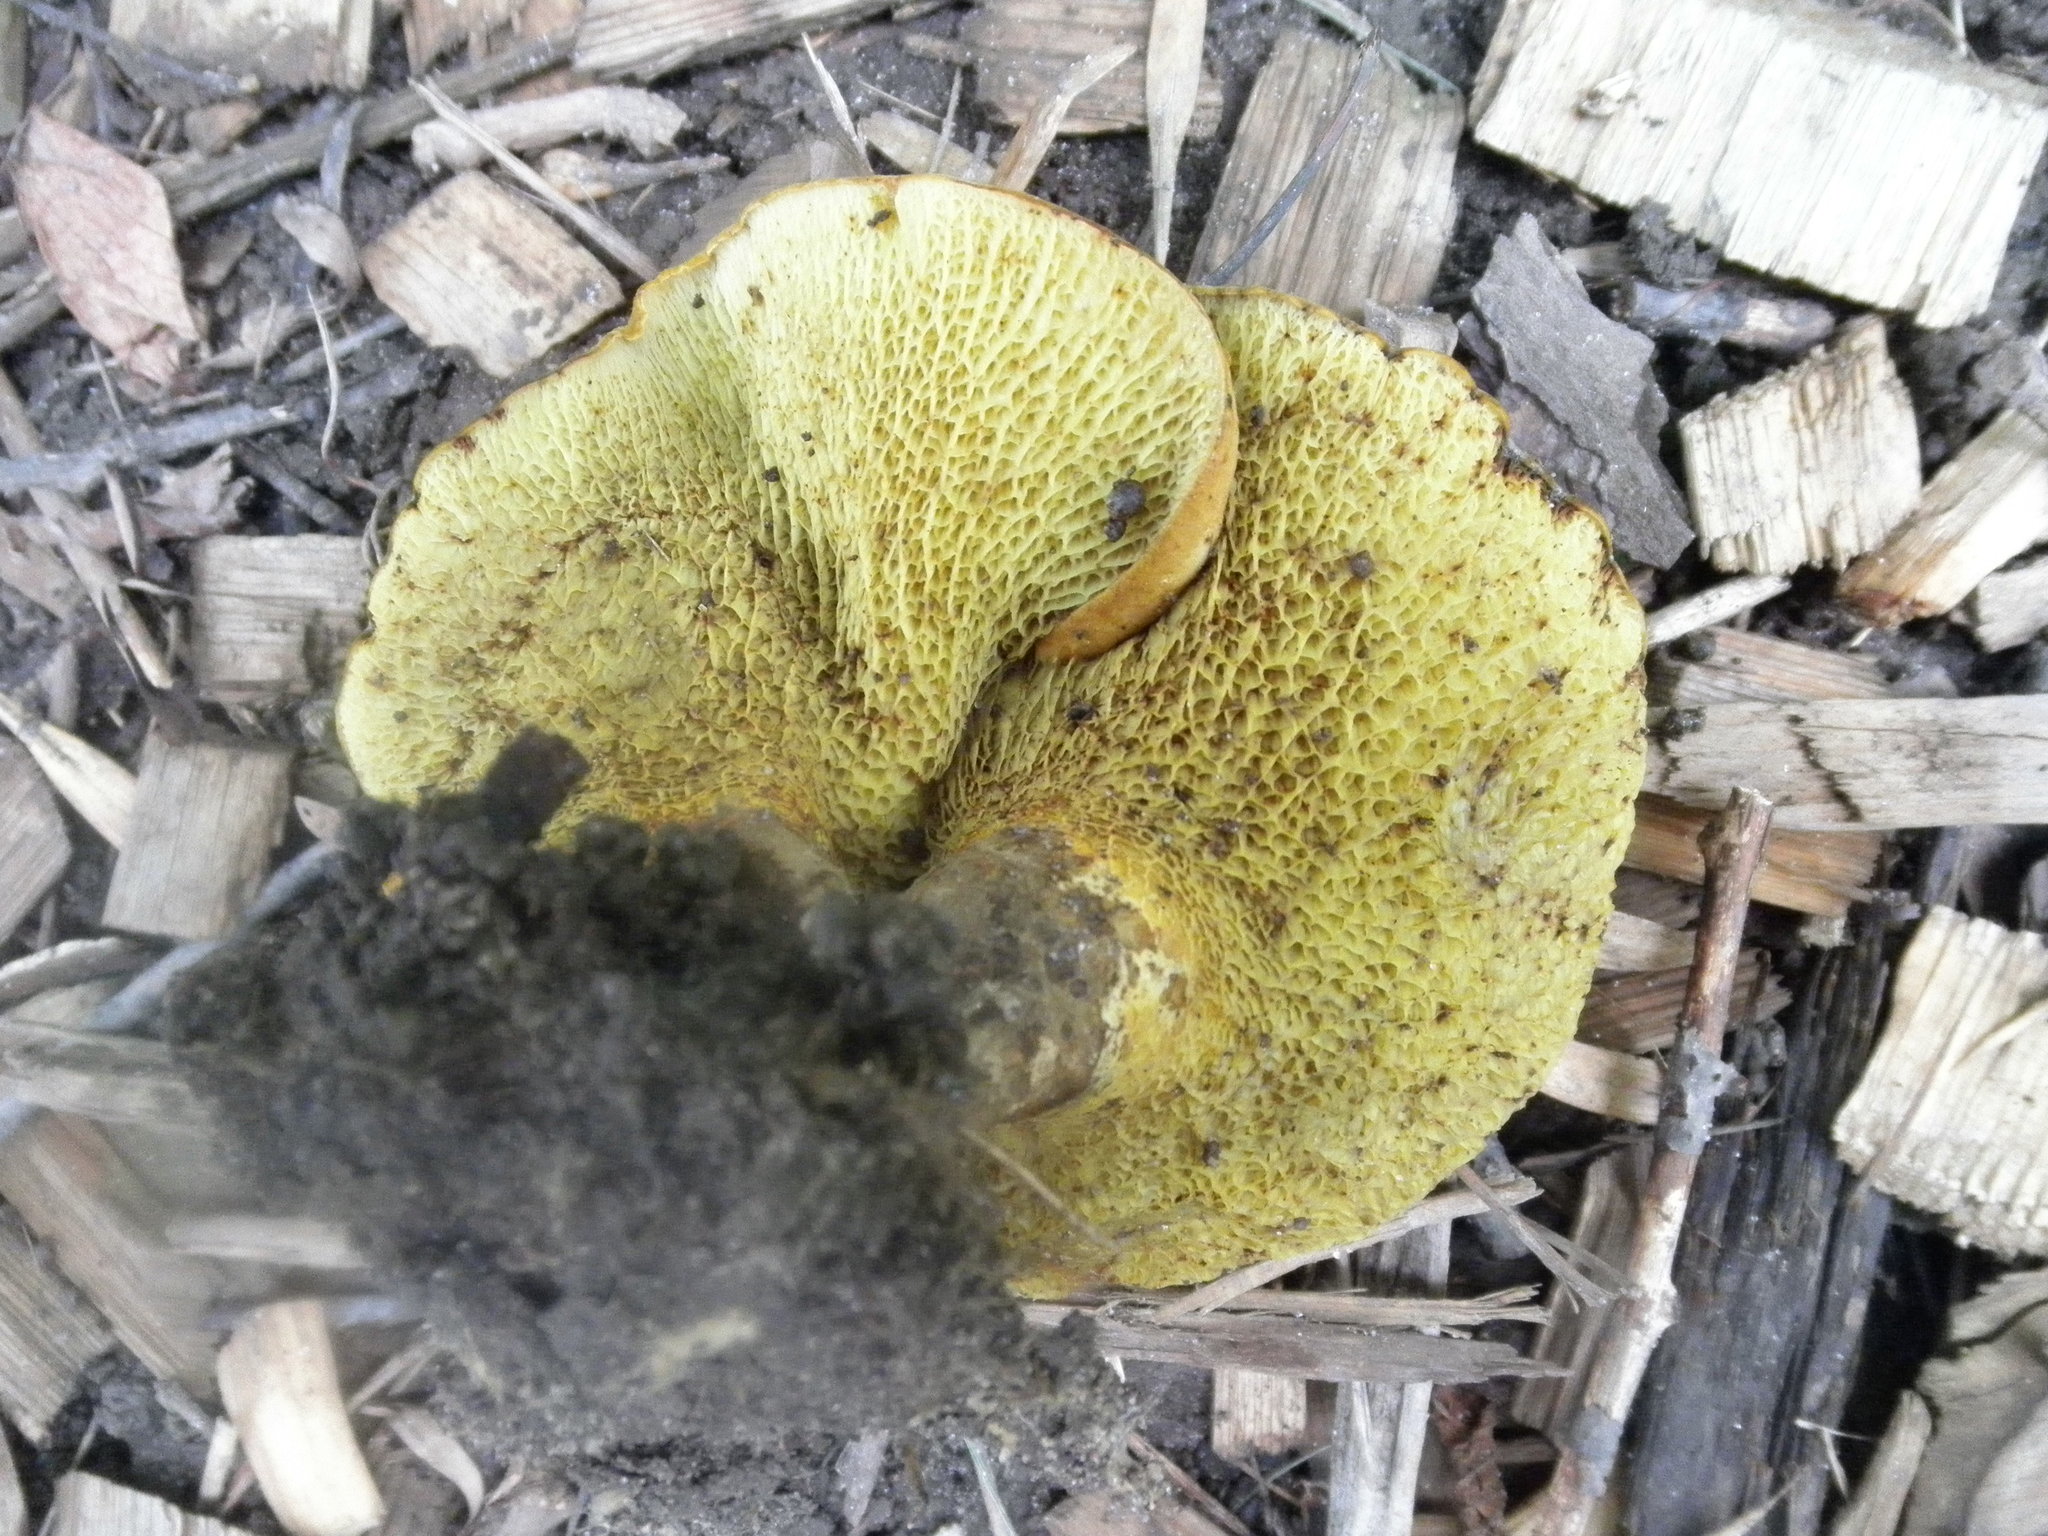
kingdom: Fungi
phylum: Basidiomycota
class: Agaricomycetes
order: Boletales
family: Boletinellaceae
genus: Boletinellus
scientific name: Boletinellus merulioides
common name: Ash tree bolete
